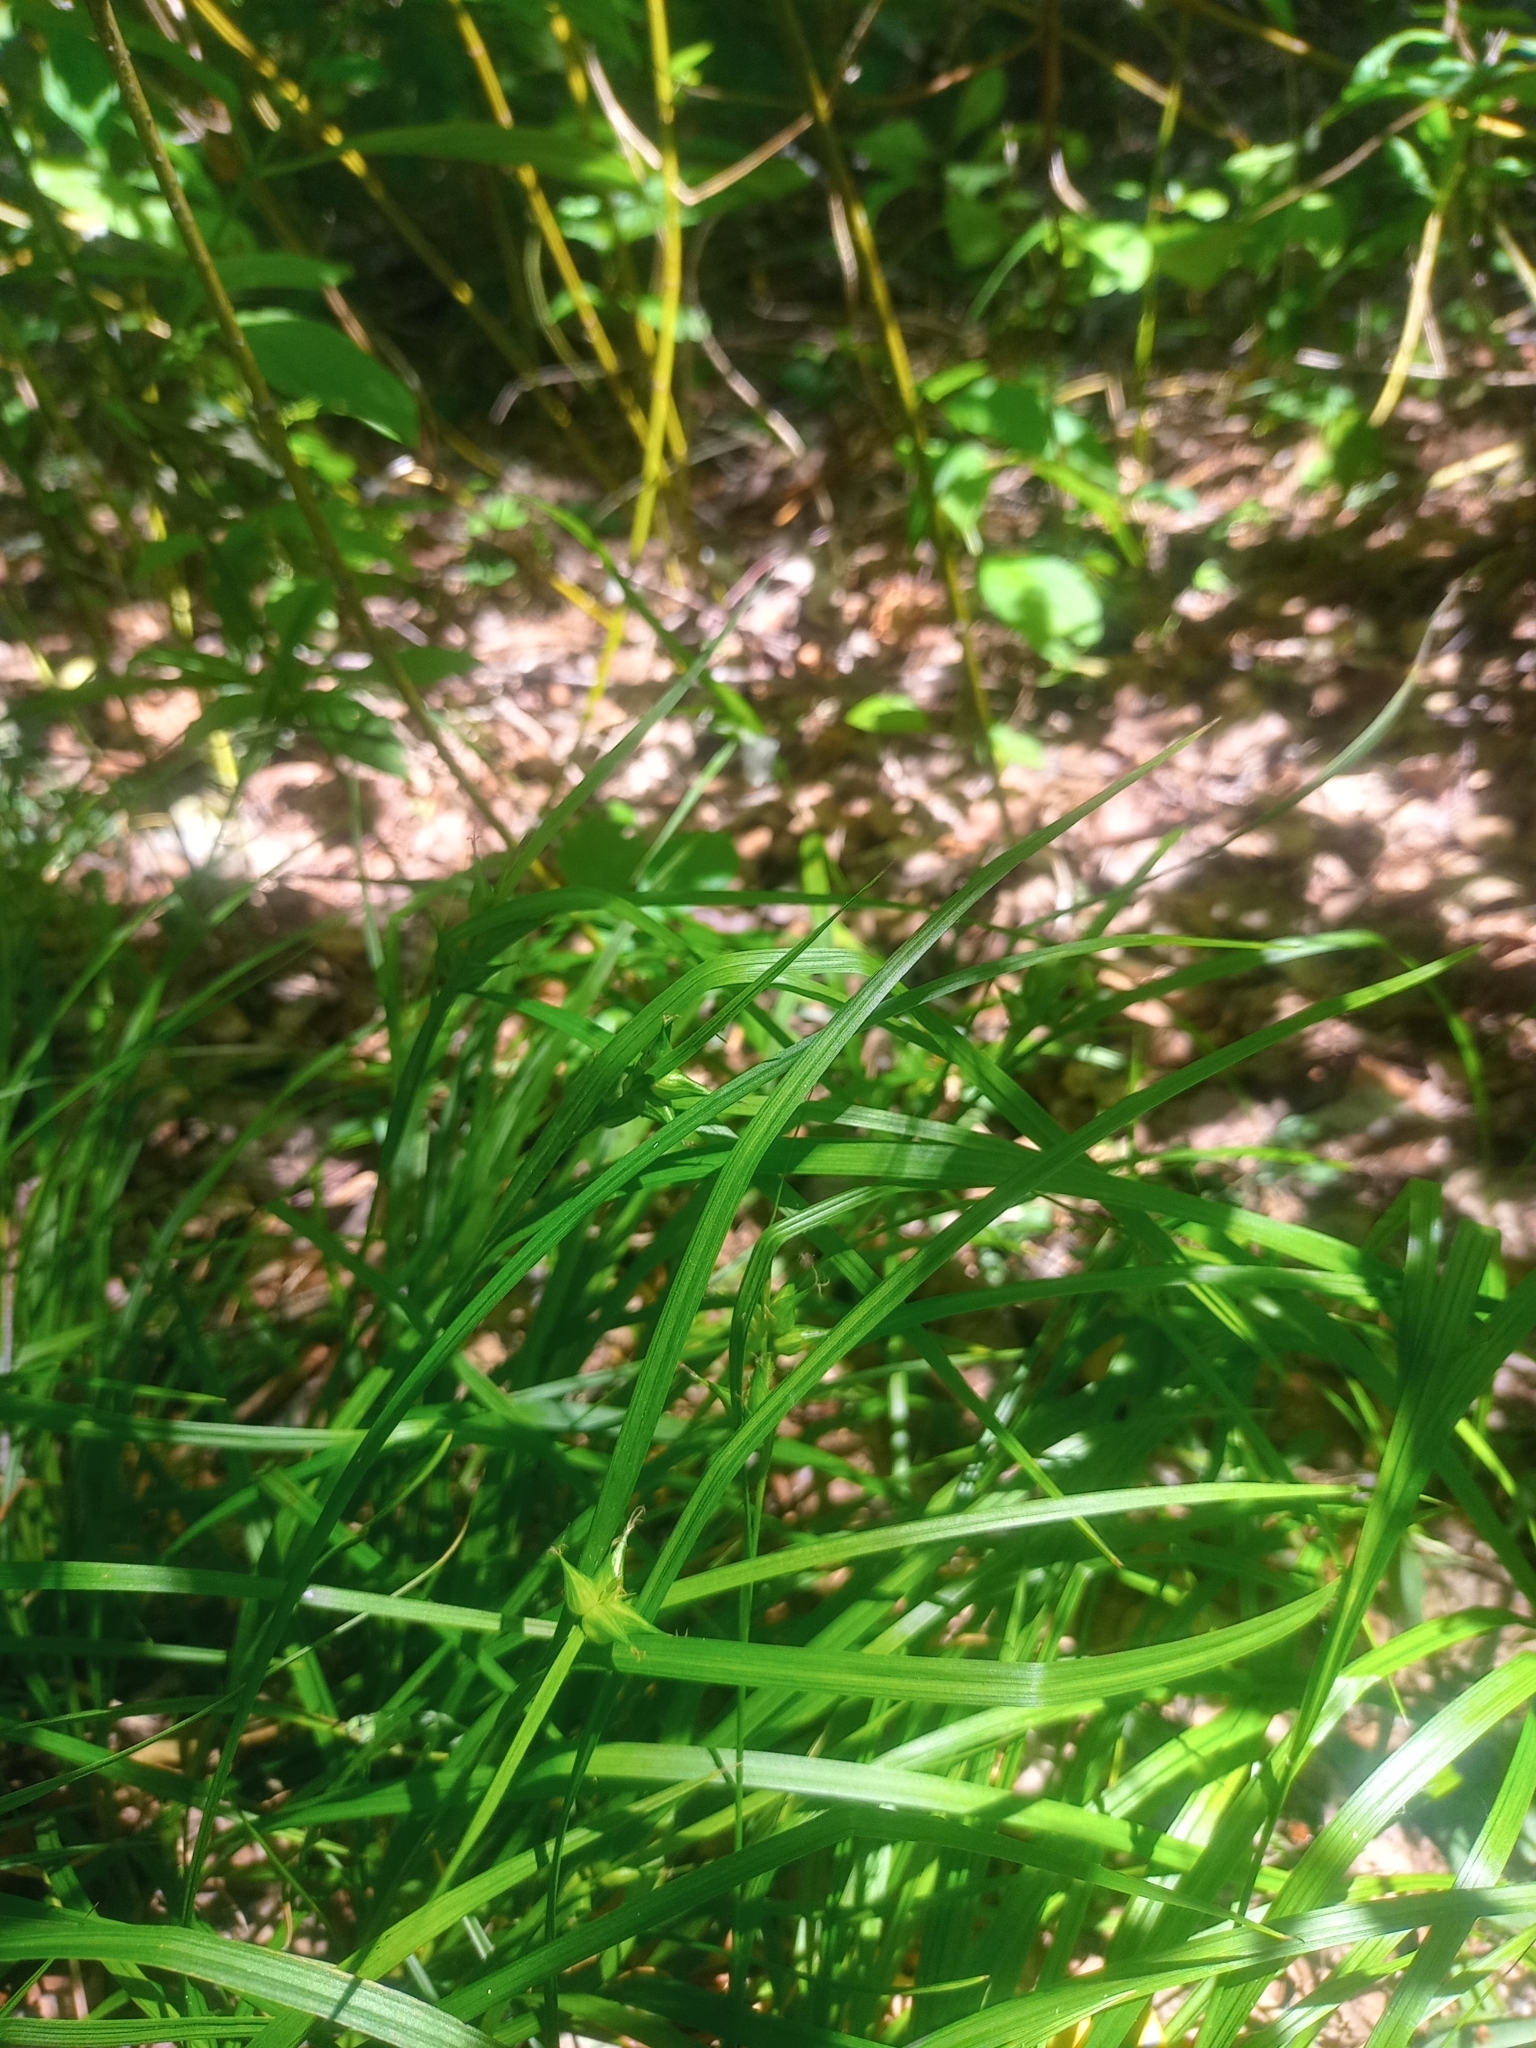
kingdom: Plantae
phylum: Tracheophyta
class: Liliopsida
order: Poales
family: Cyperaceae
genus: Carex
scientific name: Carex intumescens
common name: Greater bladder sedge
